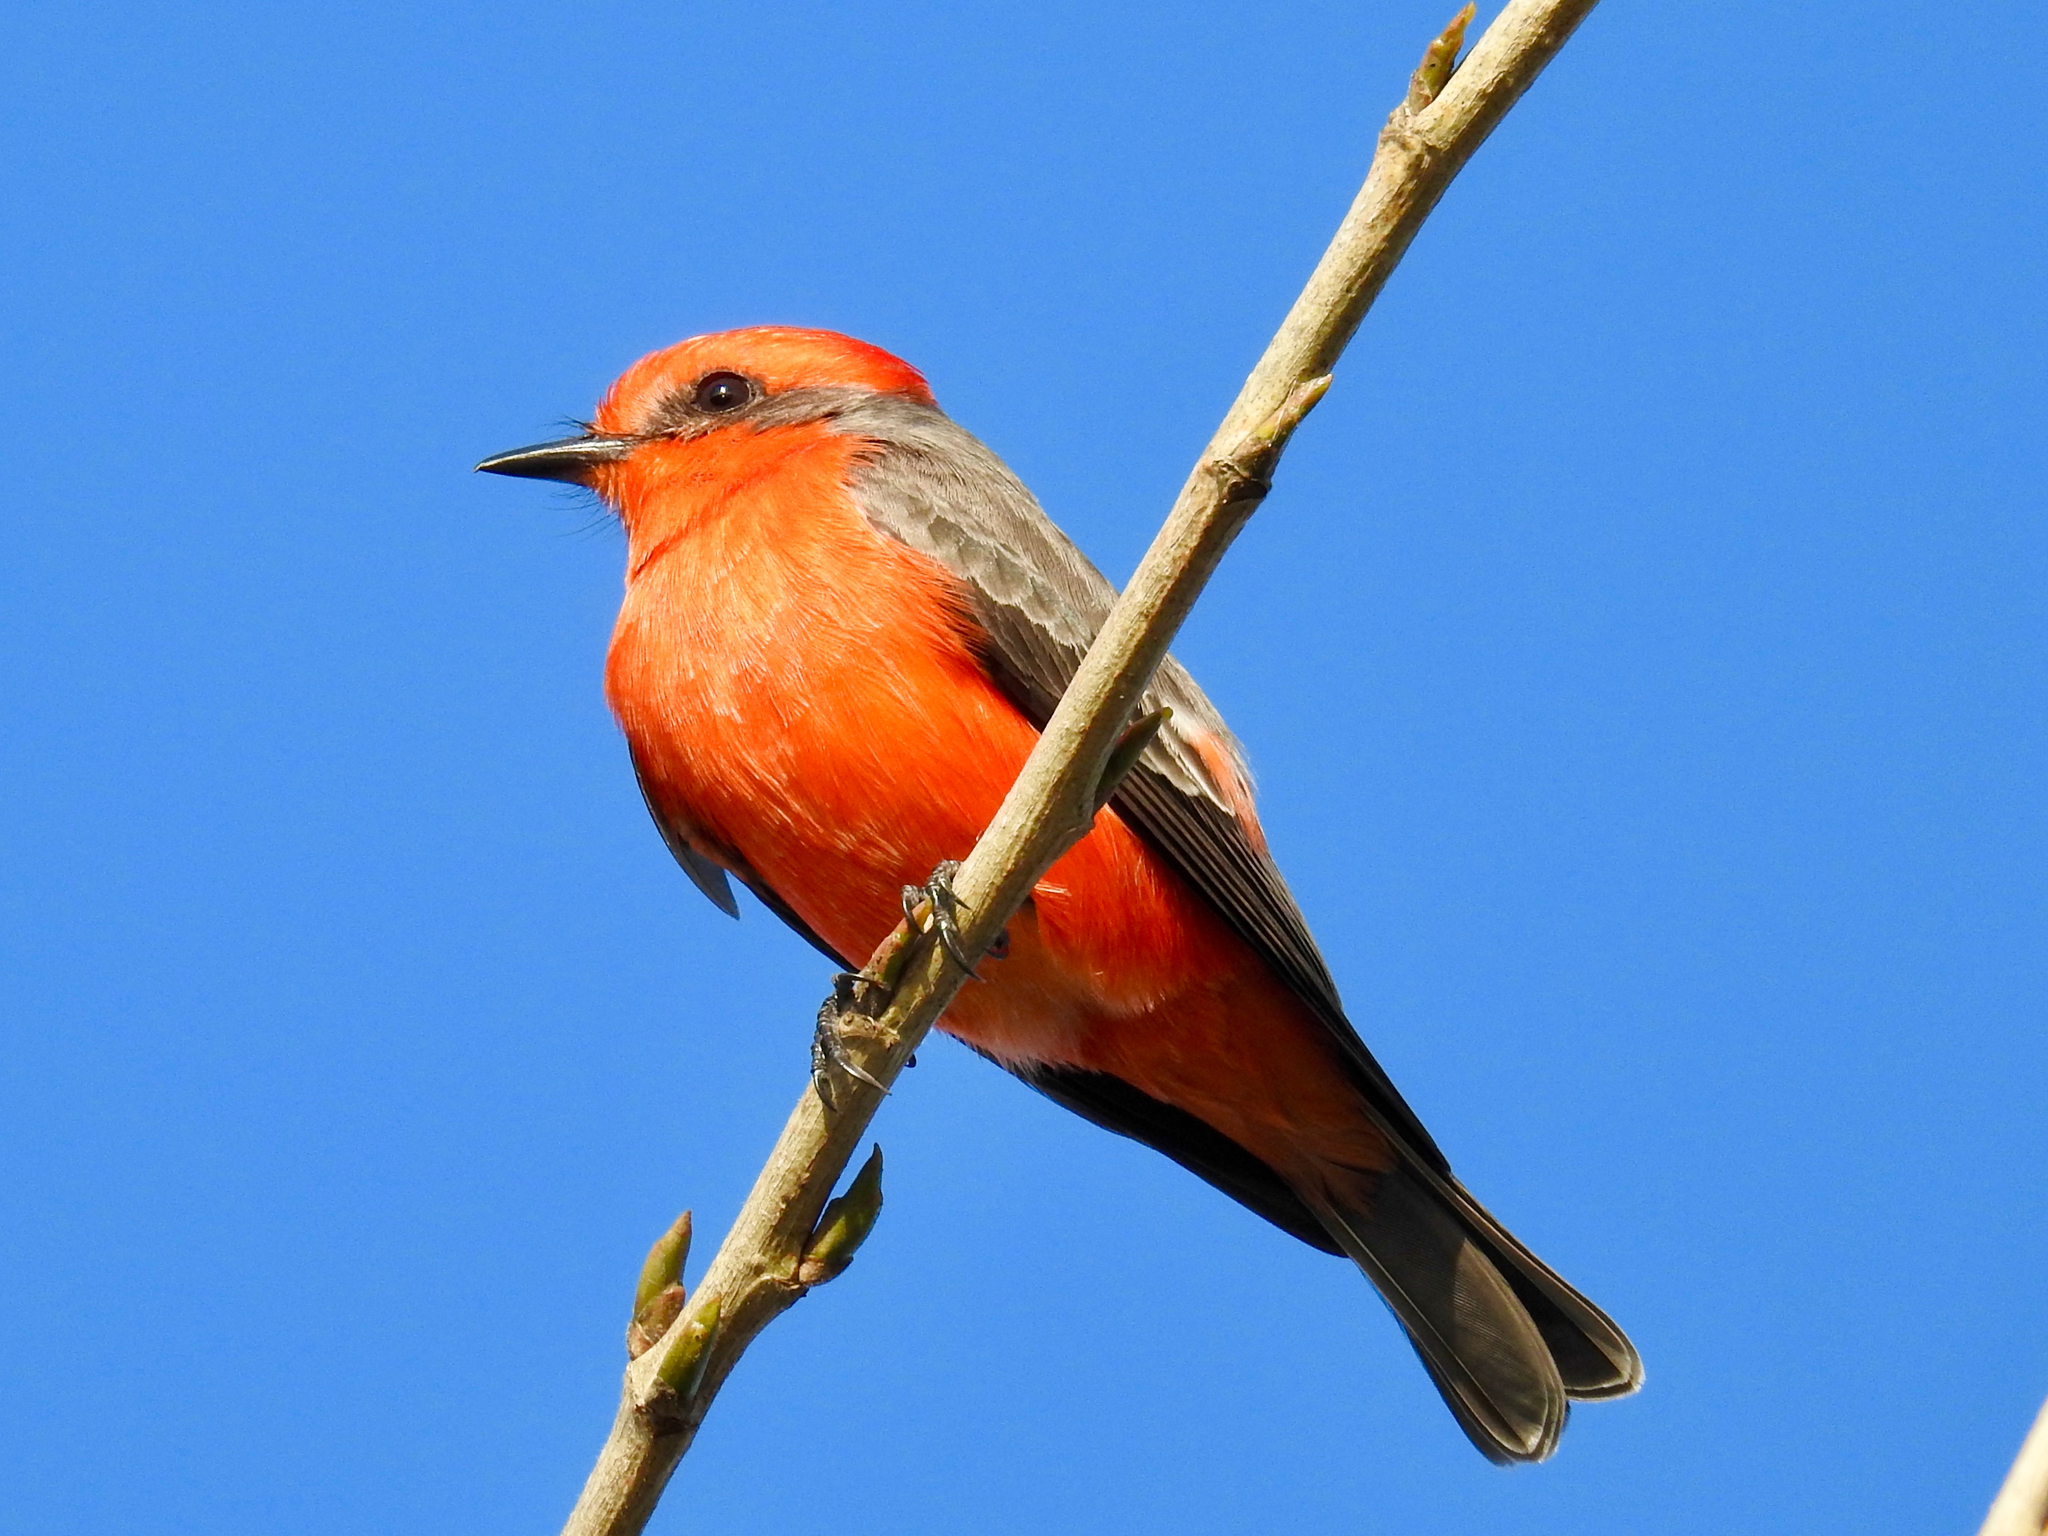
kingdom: Animalia
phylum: Chordata
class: Aves
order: Passeriformes
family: Tyrannidae
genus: Pyrocephalus
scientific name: Pyrocephalus rubinus
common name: Vermilion flycatcher
